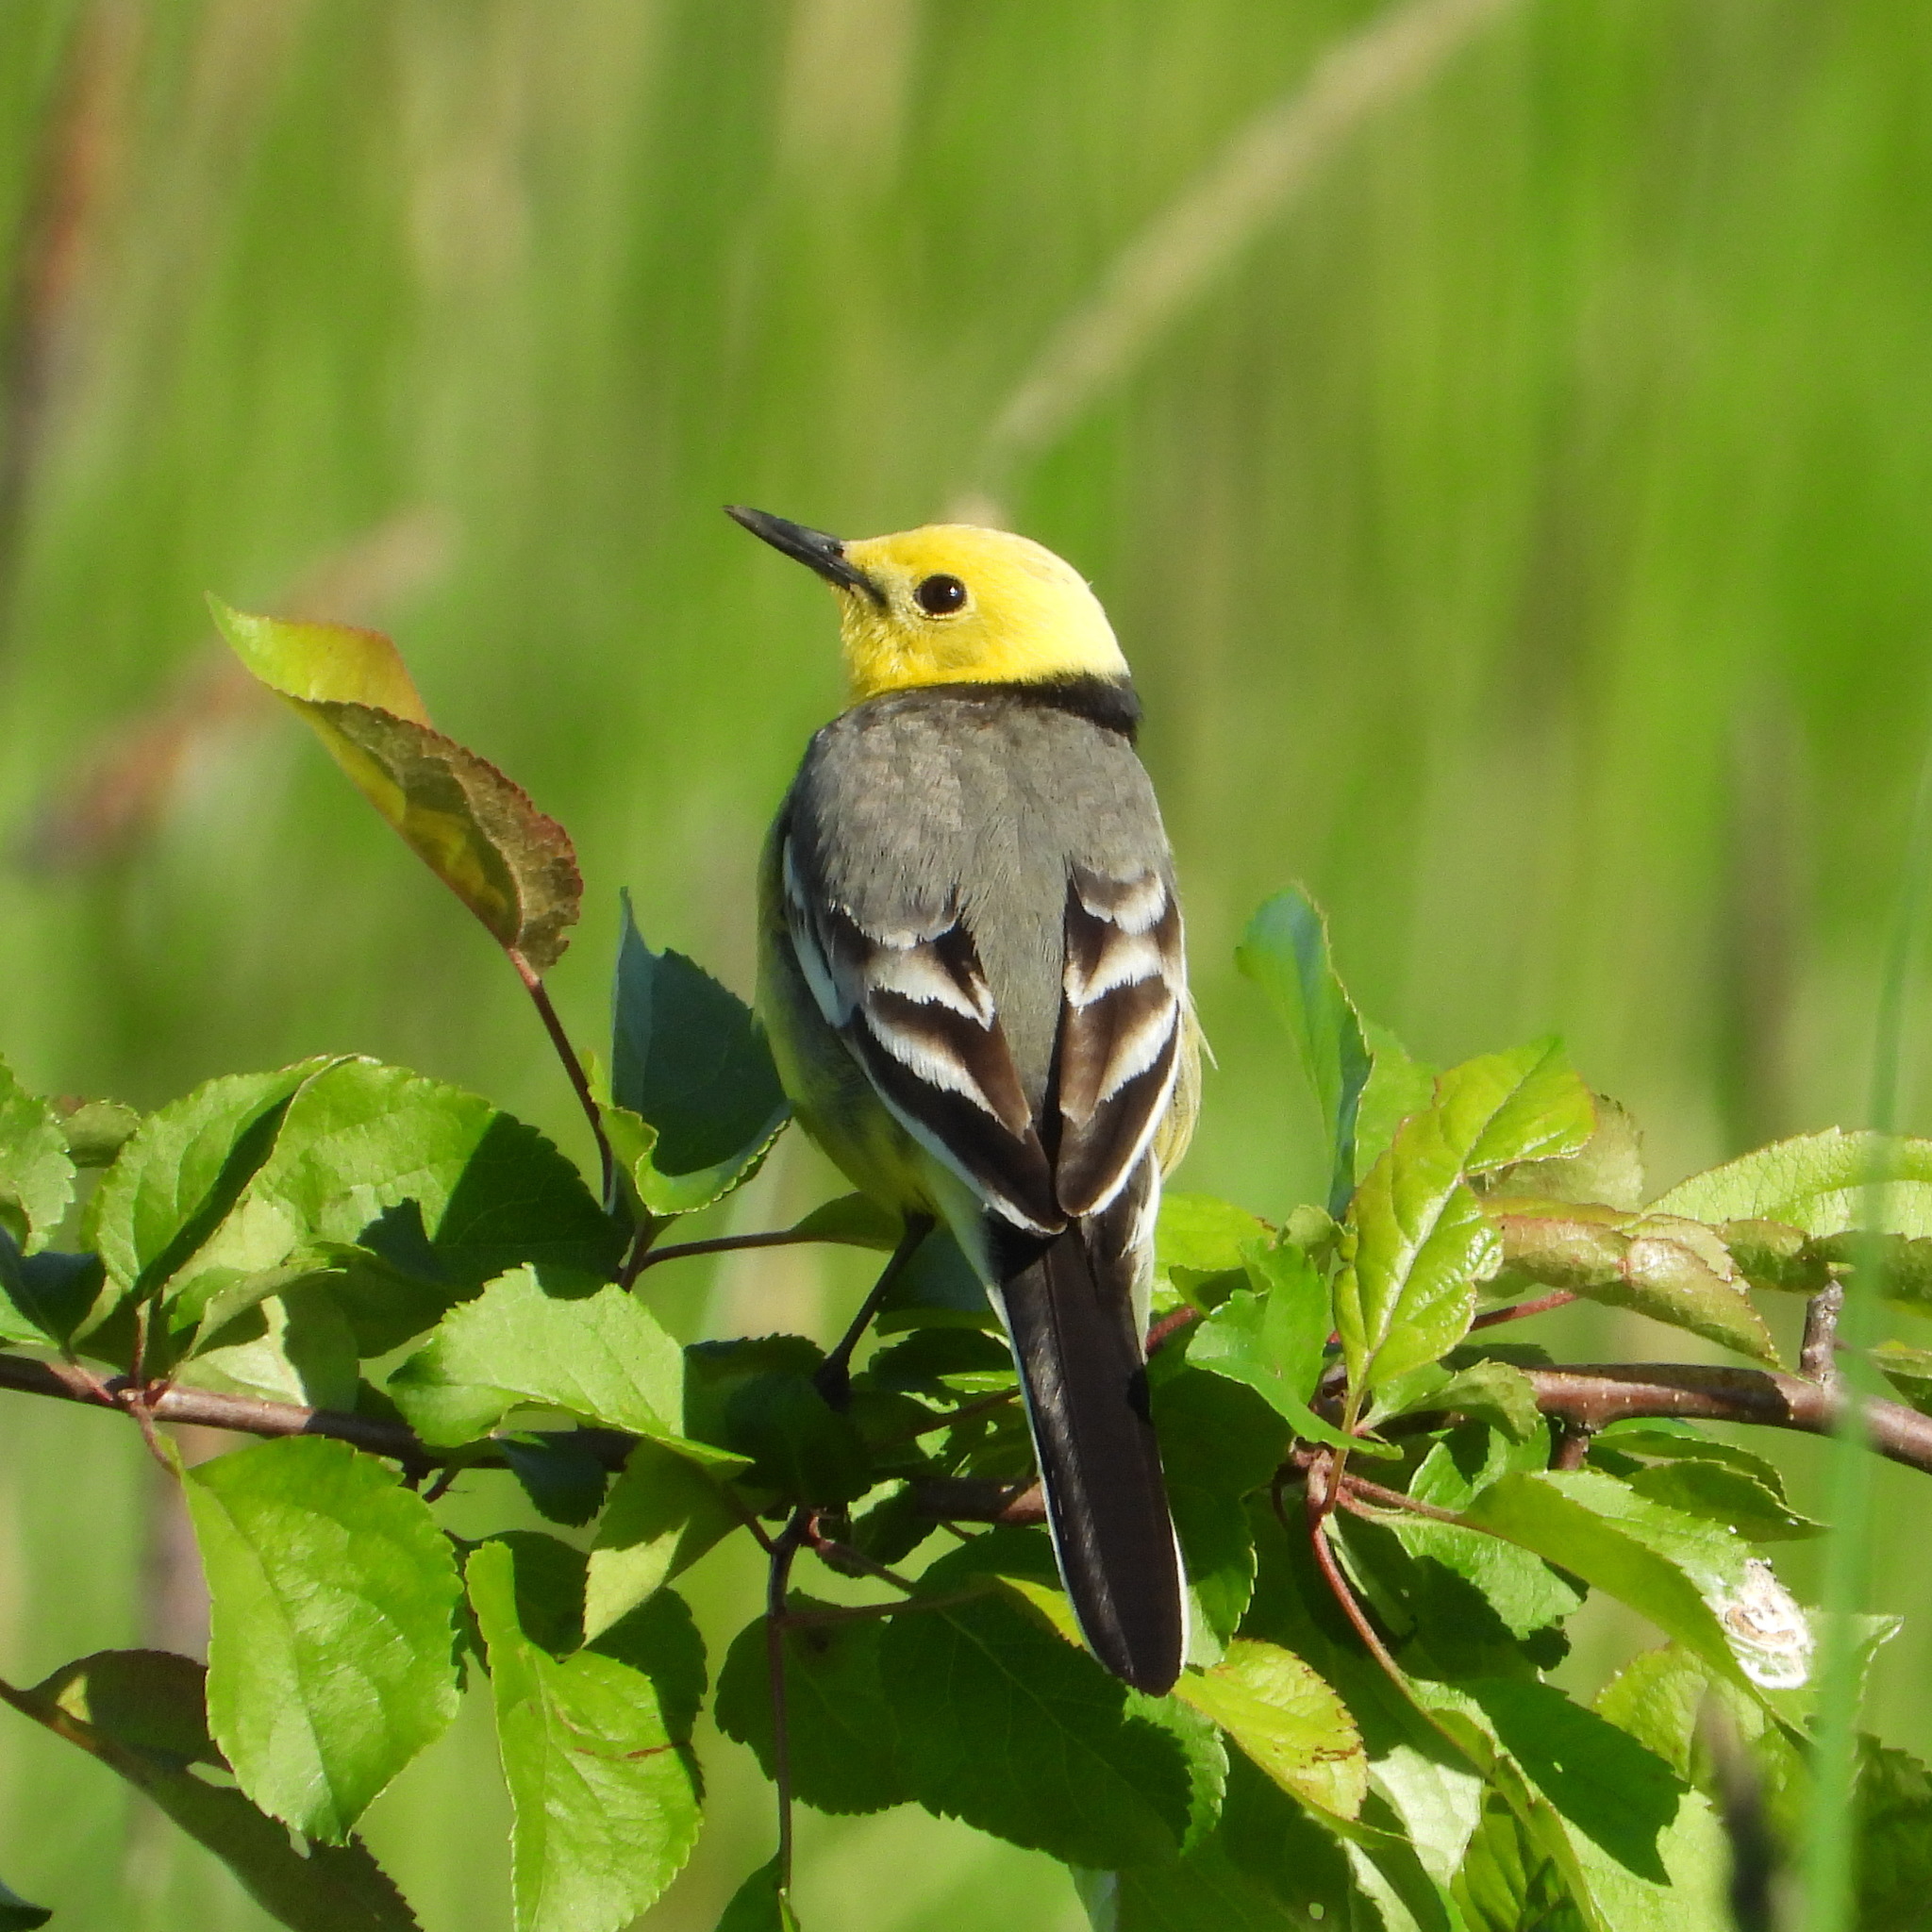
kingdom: Animalia
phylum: Chordata
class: Aves
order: Passeriformes
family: Motacillidae
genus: Motacilla
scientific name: Motacilla citreola
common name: Citrine wagtail
